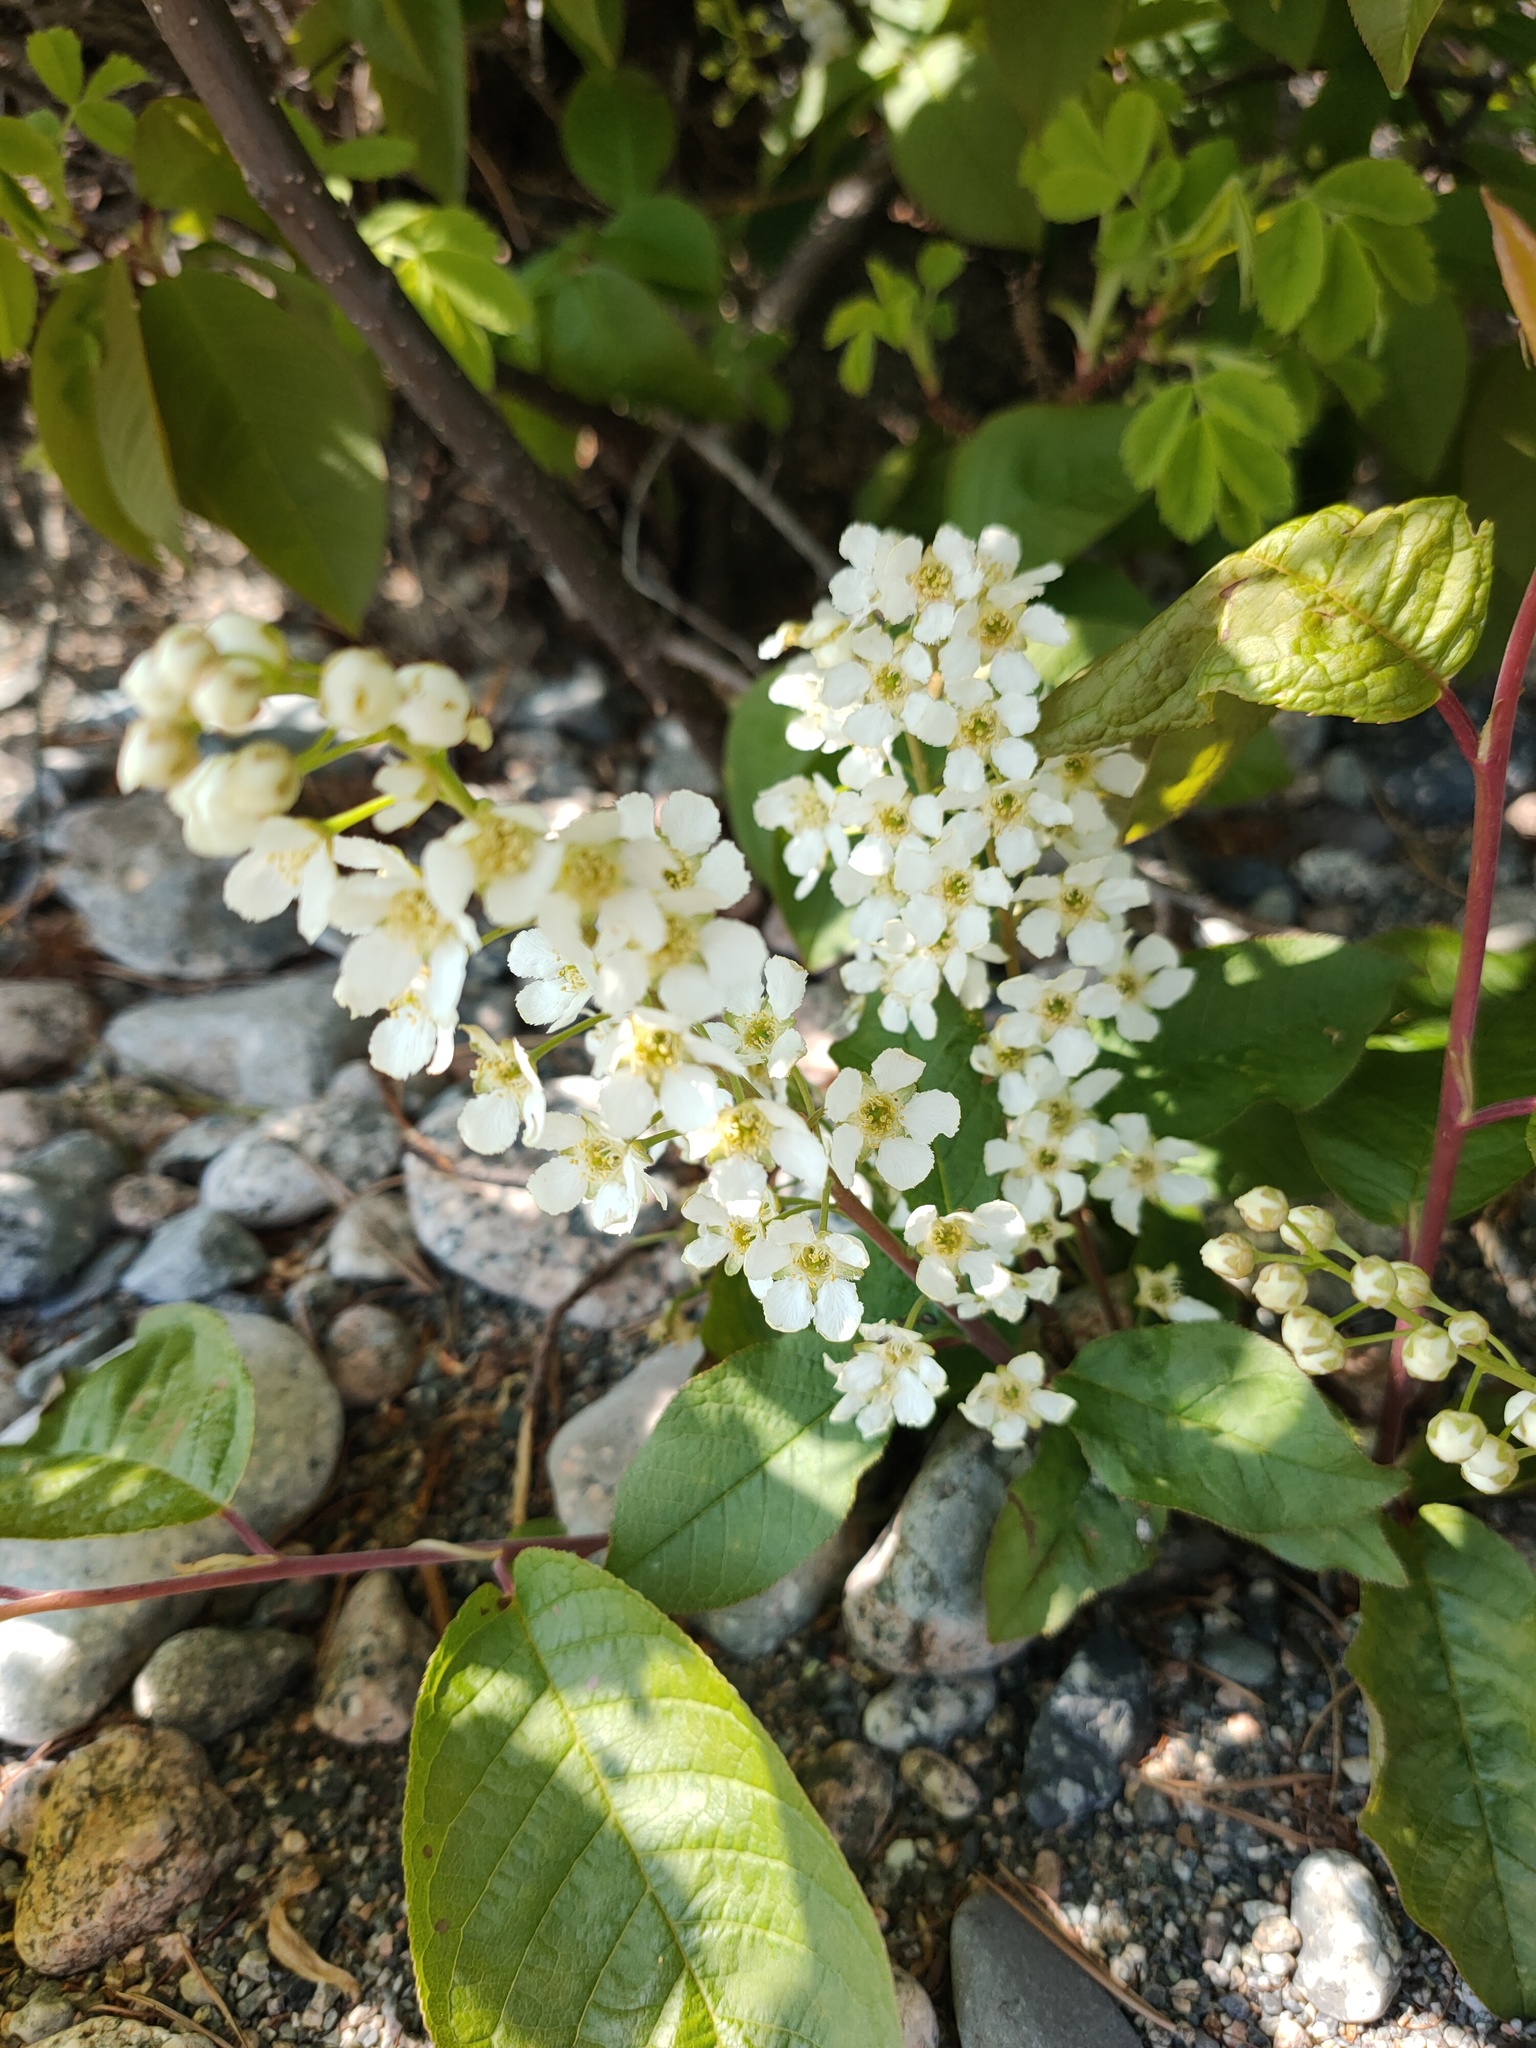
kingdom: Plantae
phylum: Tracheophyta
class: Magnoliopsida
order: Rosales
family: Rosaceae
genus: Prunus
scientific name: Prunus padus
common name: Bird cherry
